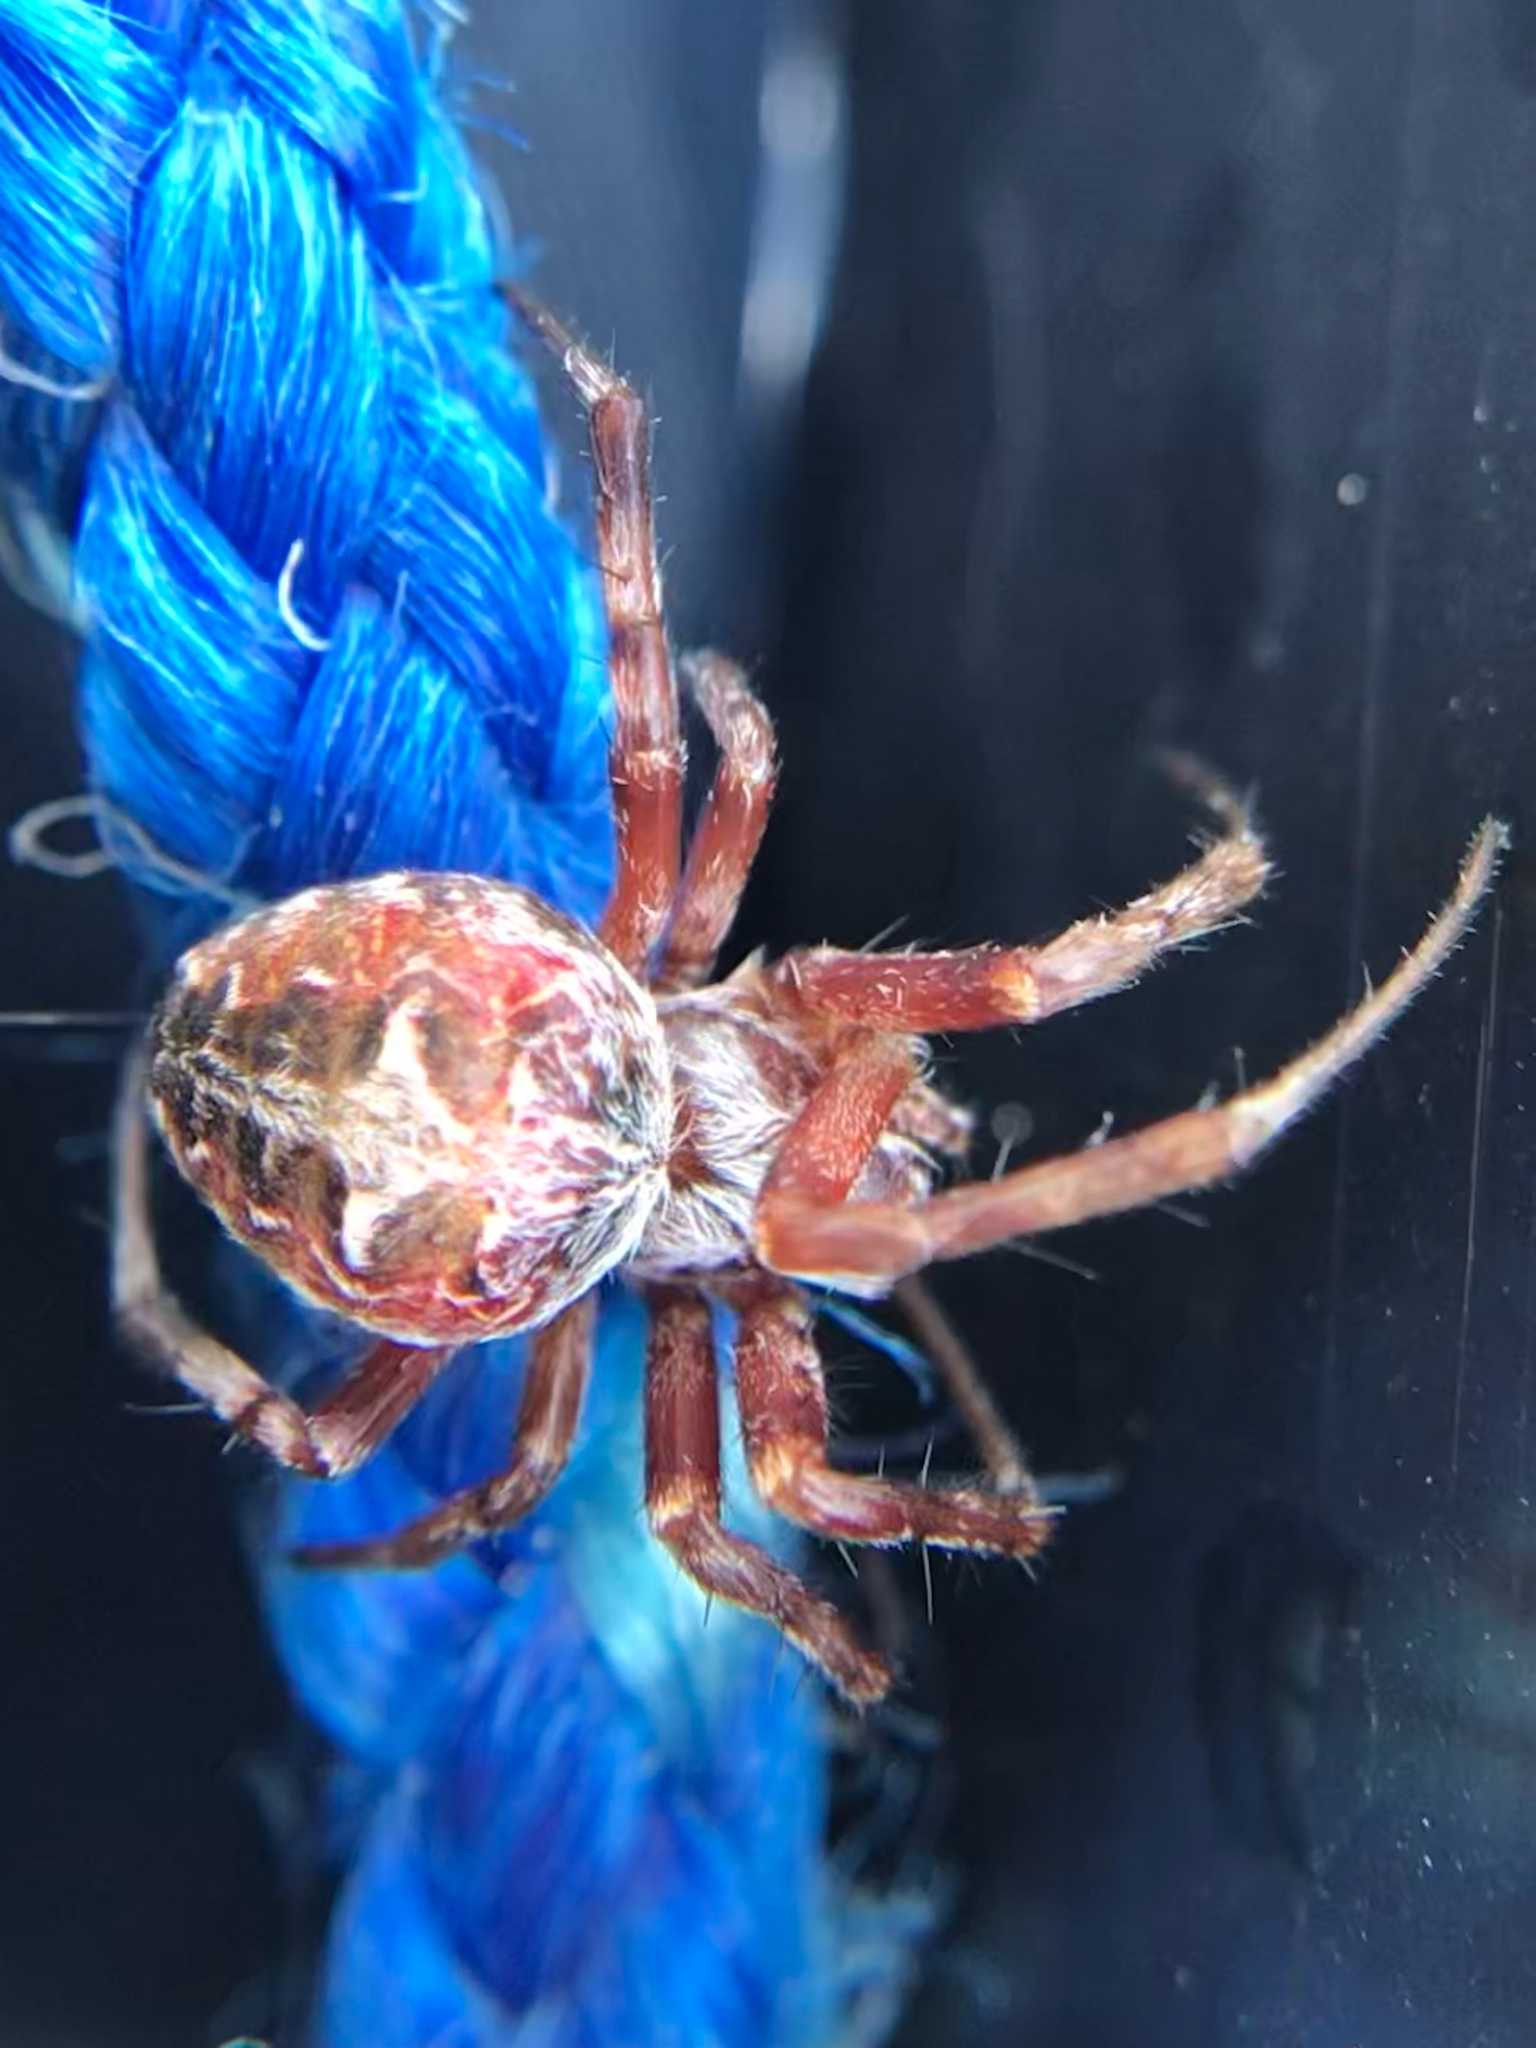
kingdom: Animalia
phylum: Arthropoda
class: Arachnida
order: Araneae
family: Araneidae
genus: Metepeira
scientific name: Metepeira labyrinthea
